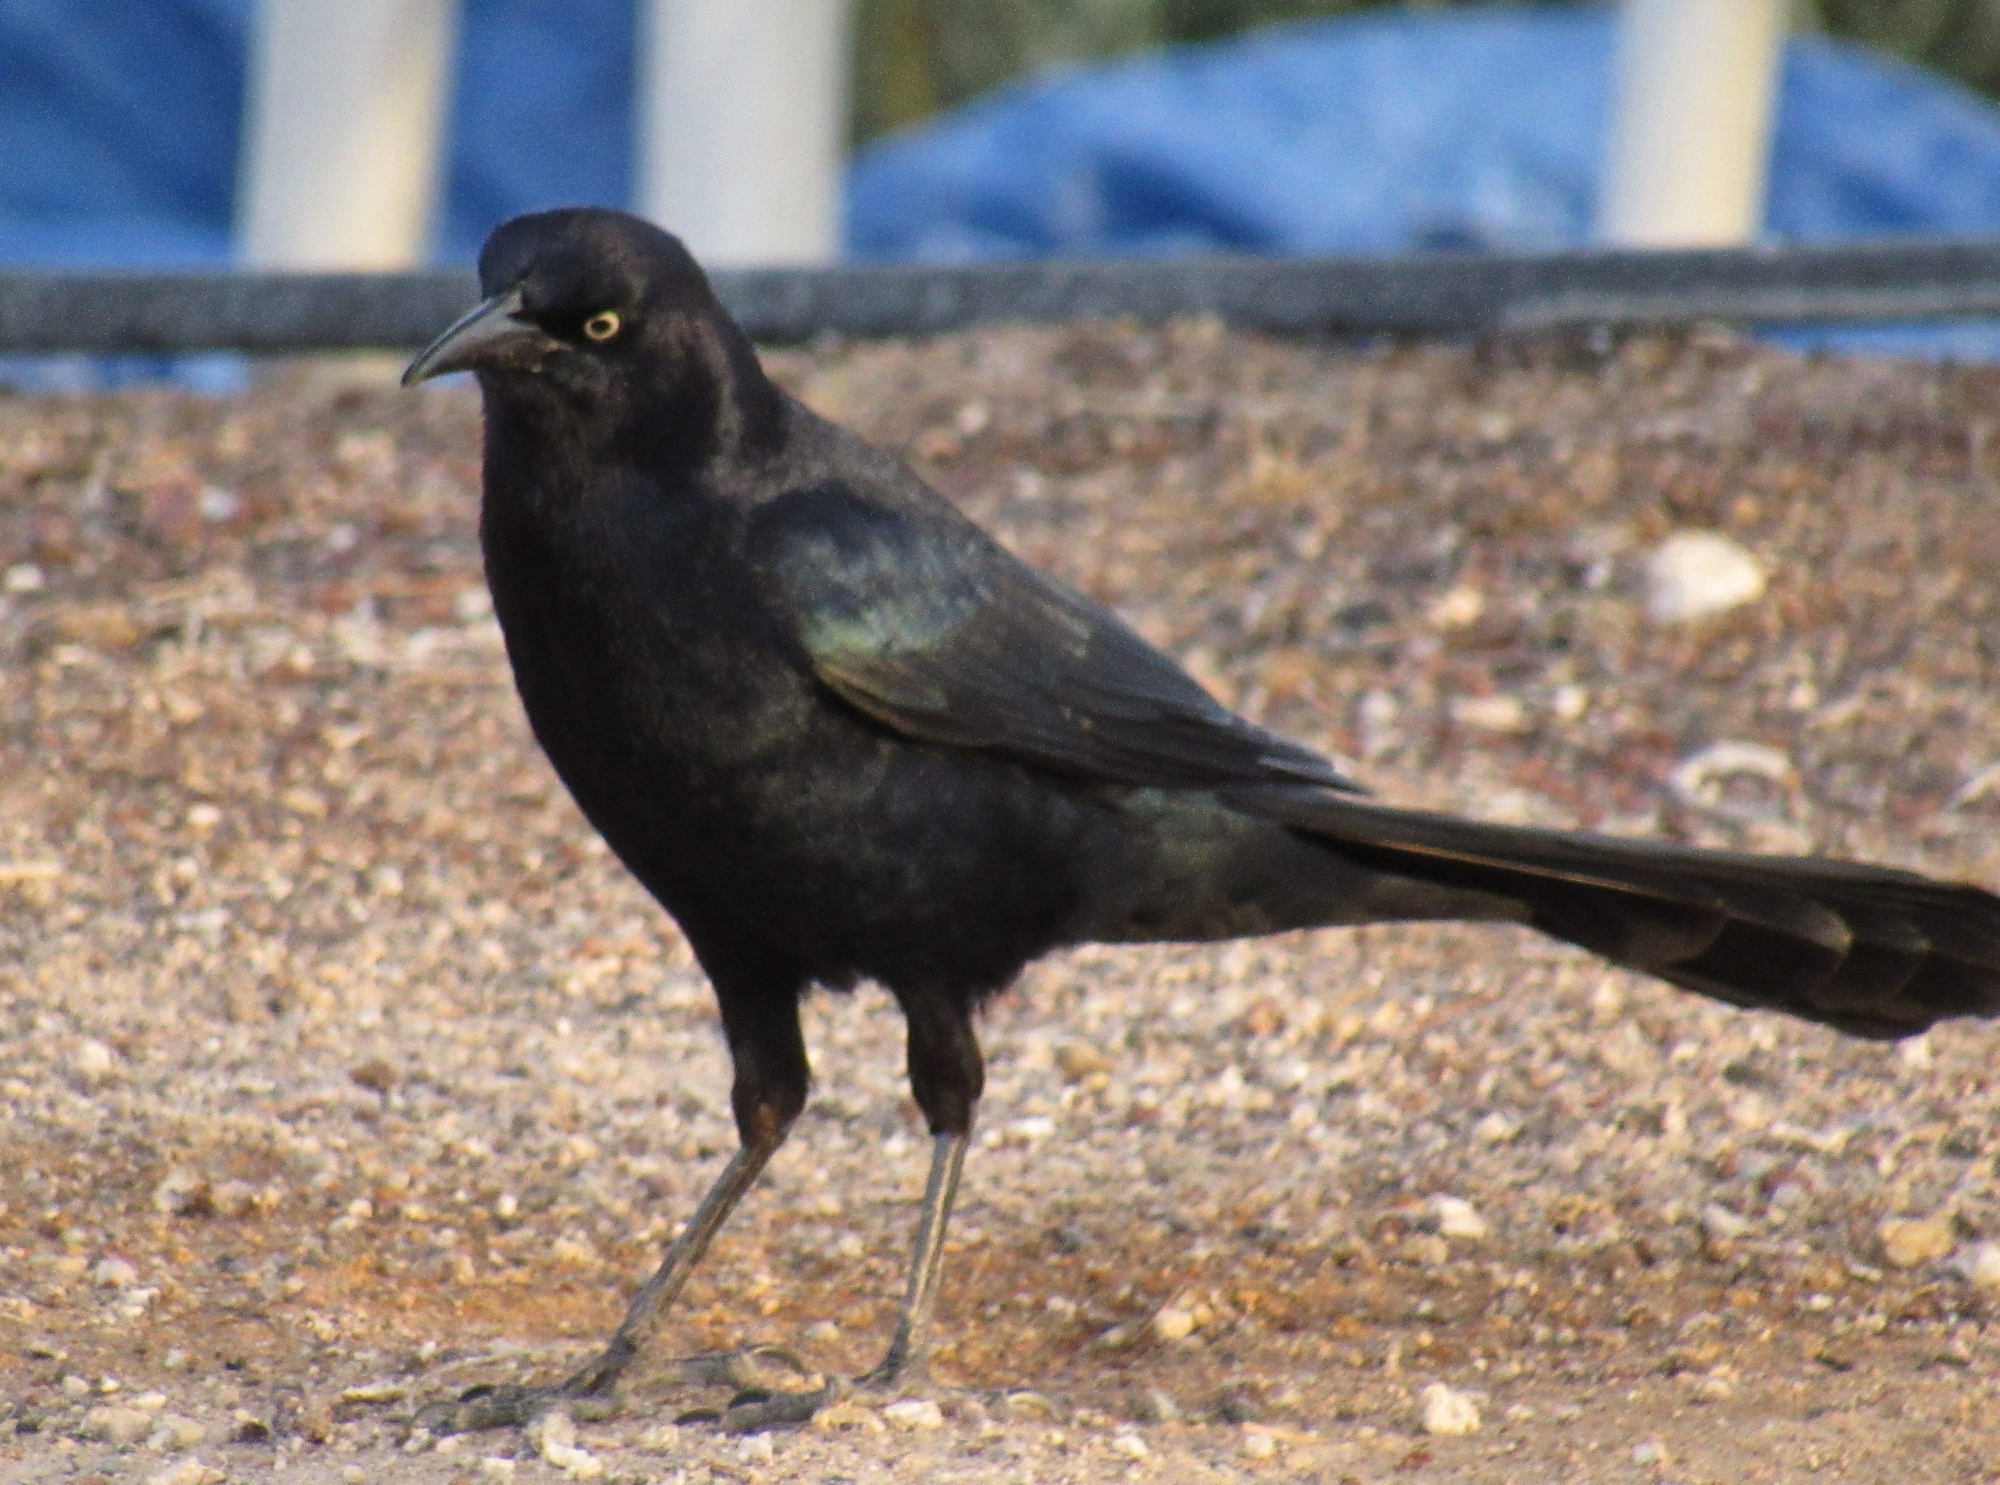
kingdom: Animalia
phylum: Chordata
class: Aves
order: Passeriformes
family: Icteridae
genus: Quiscalus
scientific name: Quiscalus mexicanus
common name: Great-tailed grackle
